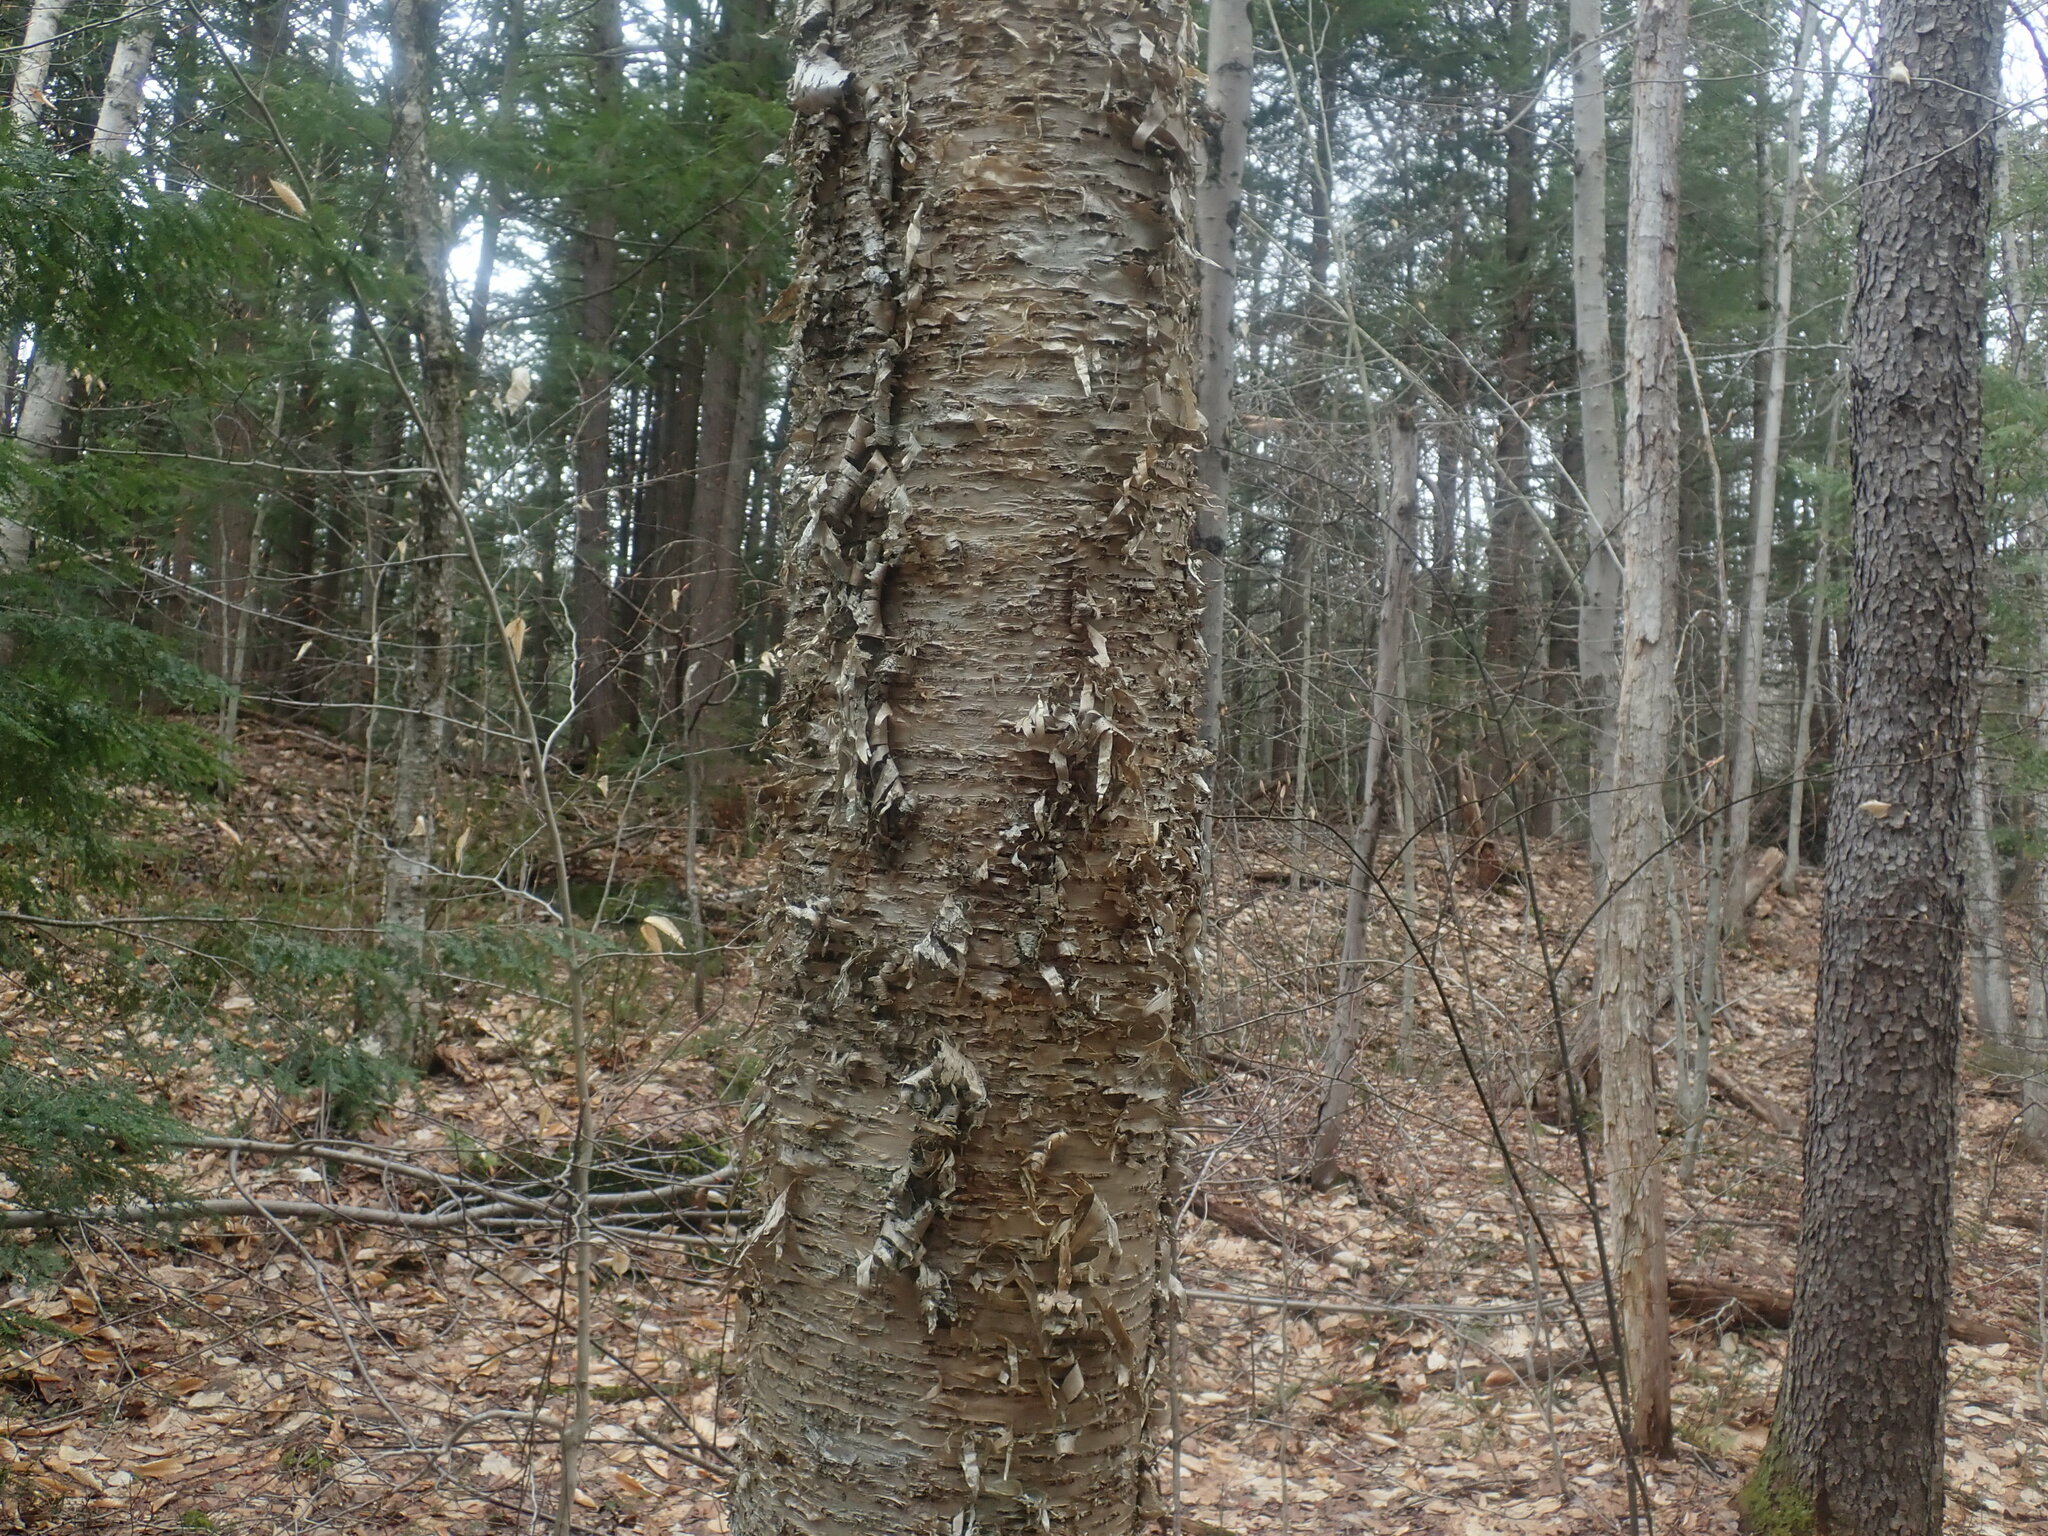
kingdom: Plantae
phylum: Tracheophyta
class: Magnoliopsida
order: Fagales
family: Betulaceae
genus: Betula
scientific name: Betula alleghaniensis
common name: Yellow birch
